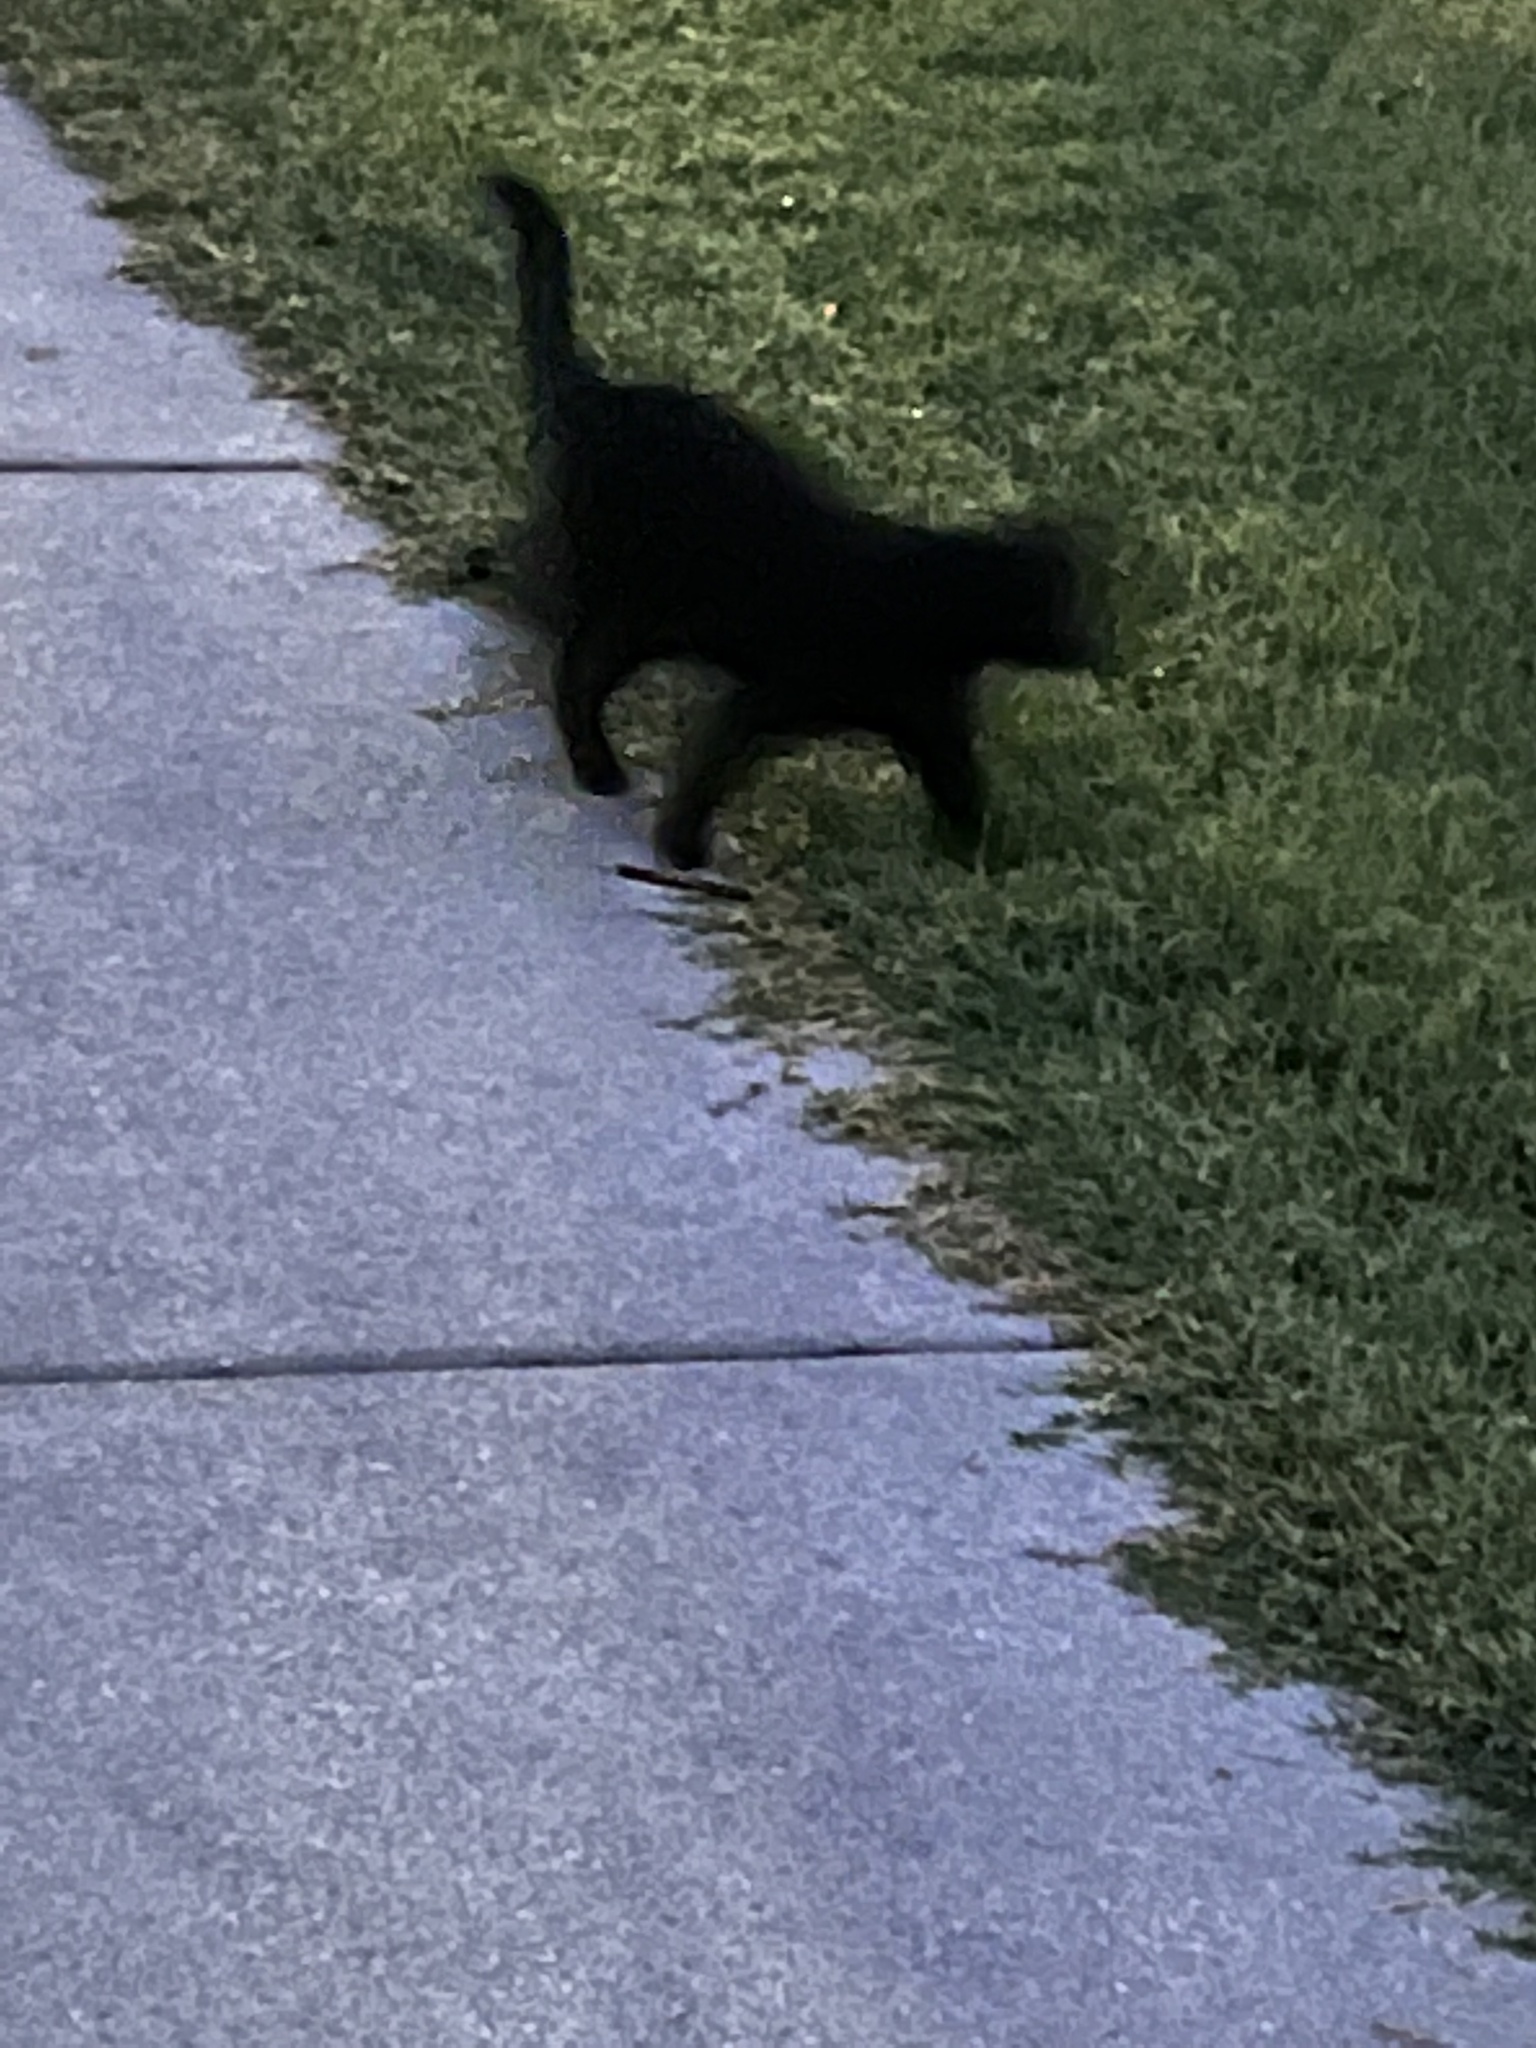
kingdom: Animalia
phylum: Chordata
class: Mammalia
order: Carnivora
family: Felidae
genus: Felis
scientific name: Felis catus
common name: Domestic cat
